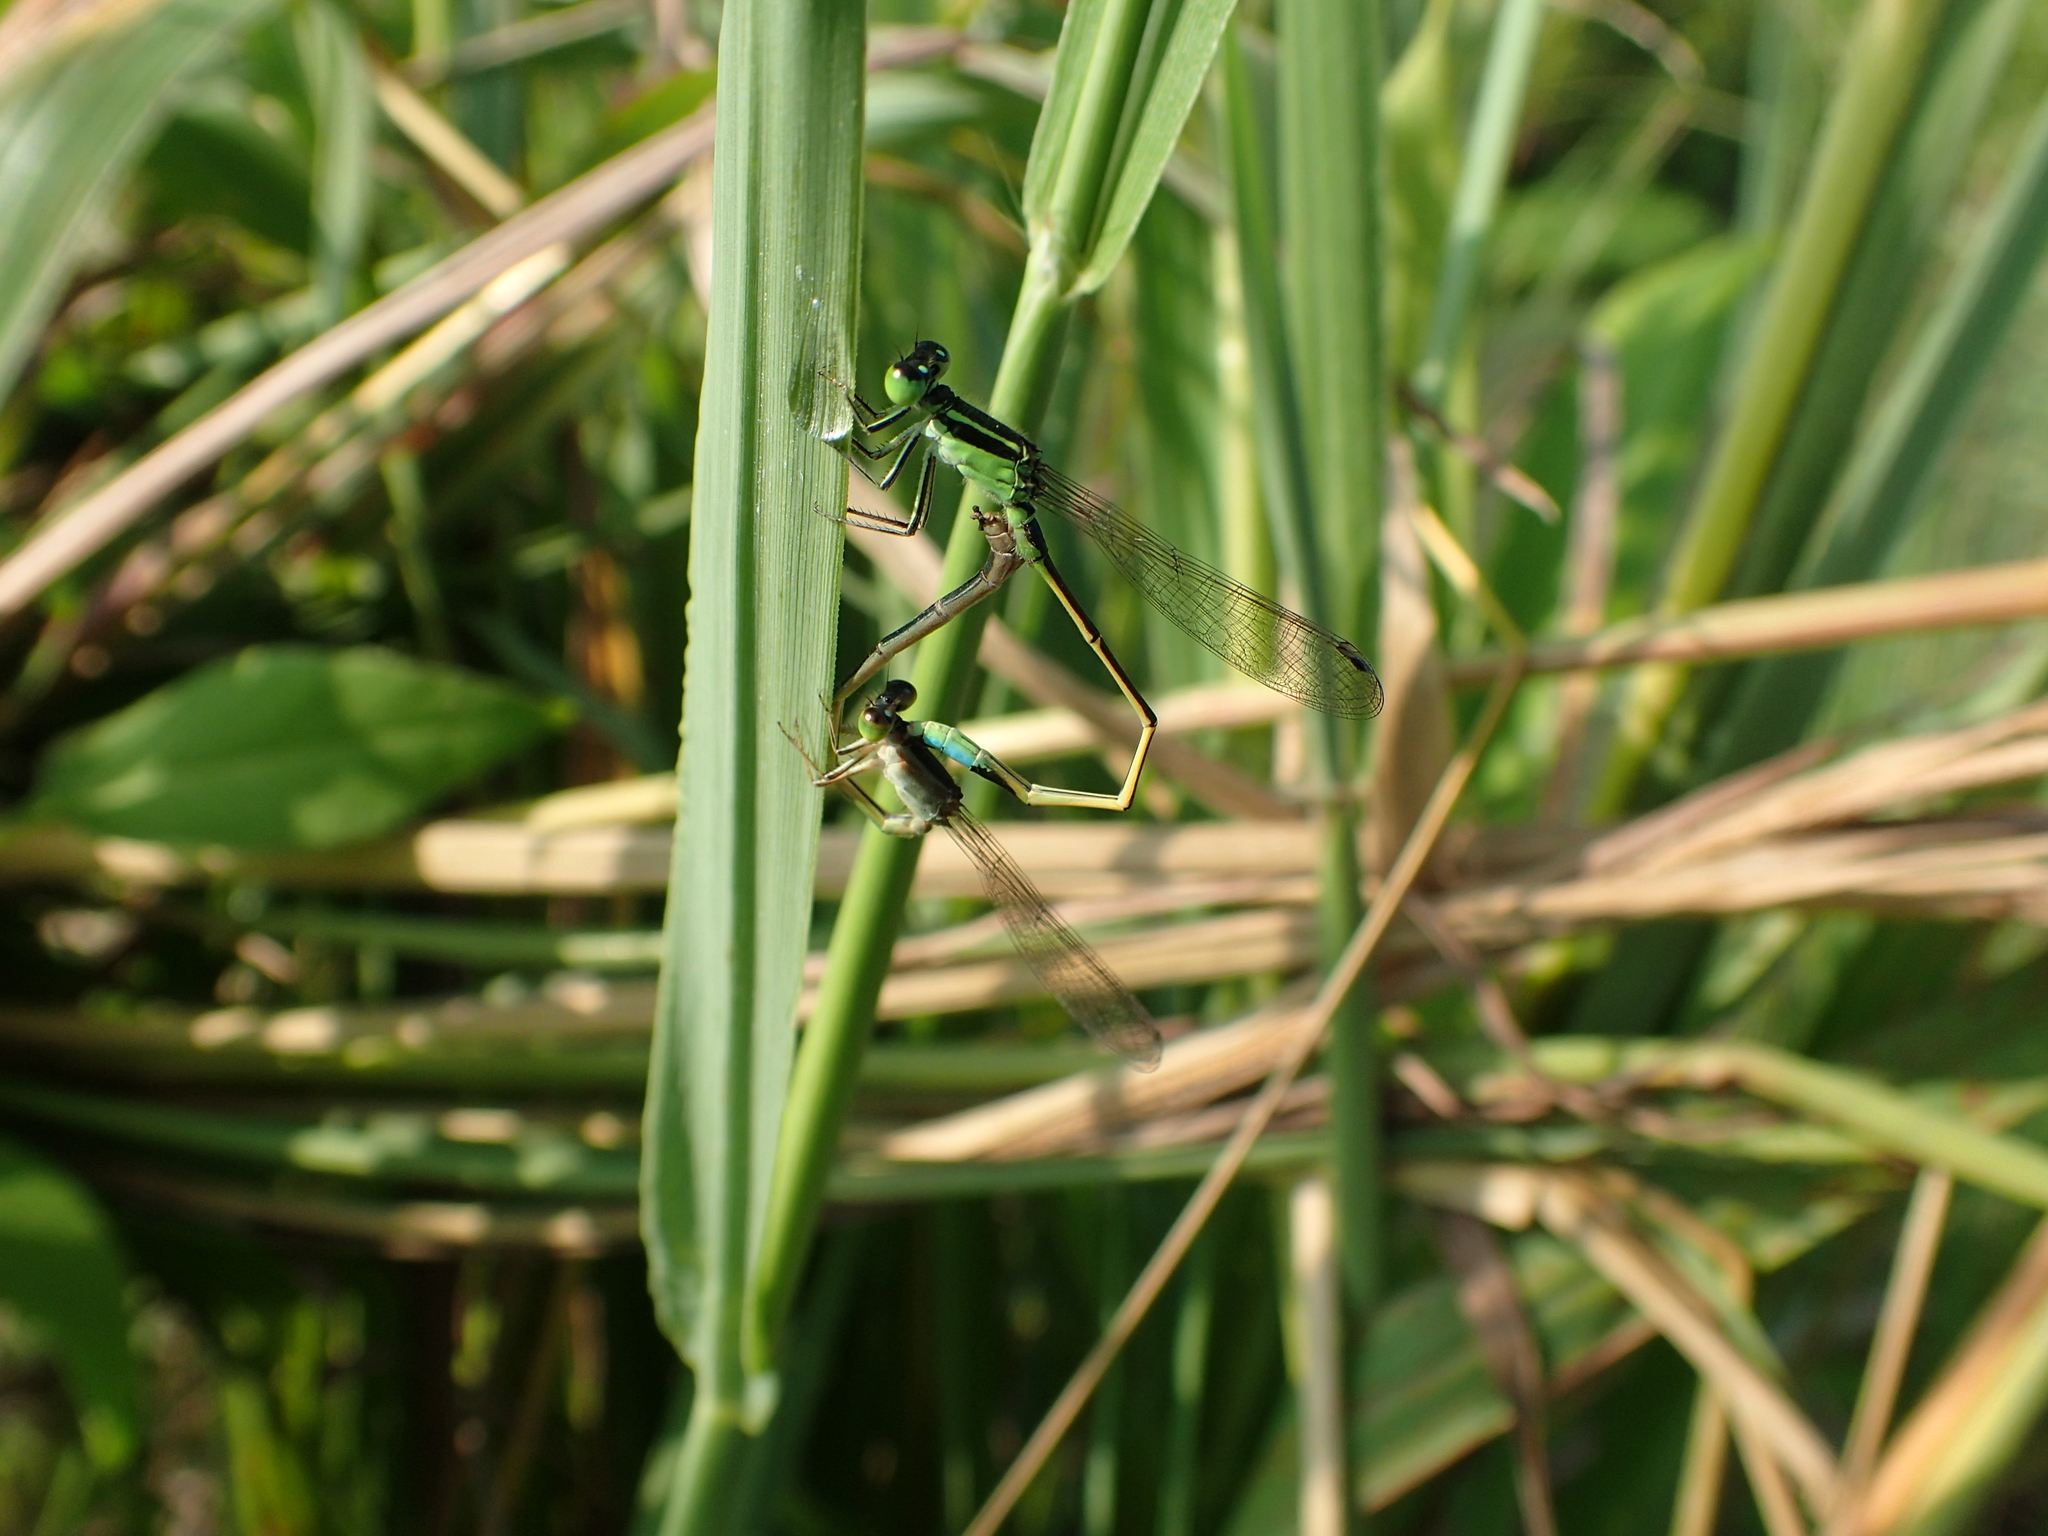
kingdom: Animalia
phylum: Arthropoda
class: Insecta
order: Odonata
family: Coenagrionidae
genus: Ischnura
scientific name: Ischnura senegalensis
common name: Tropical bluetail
